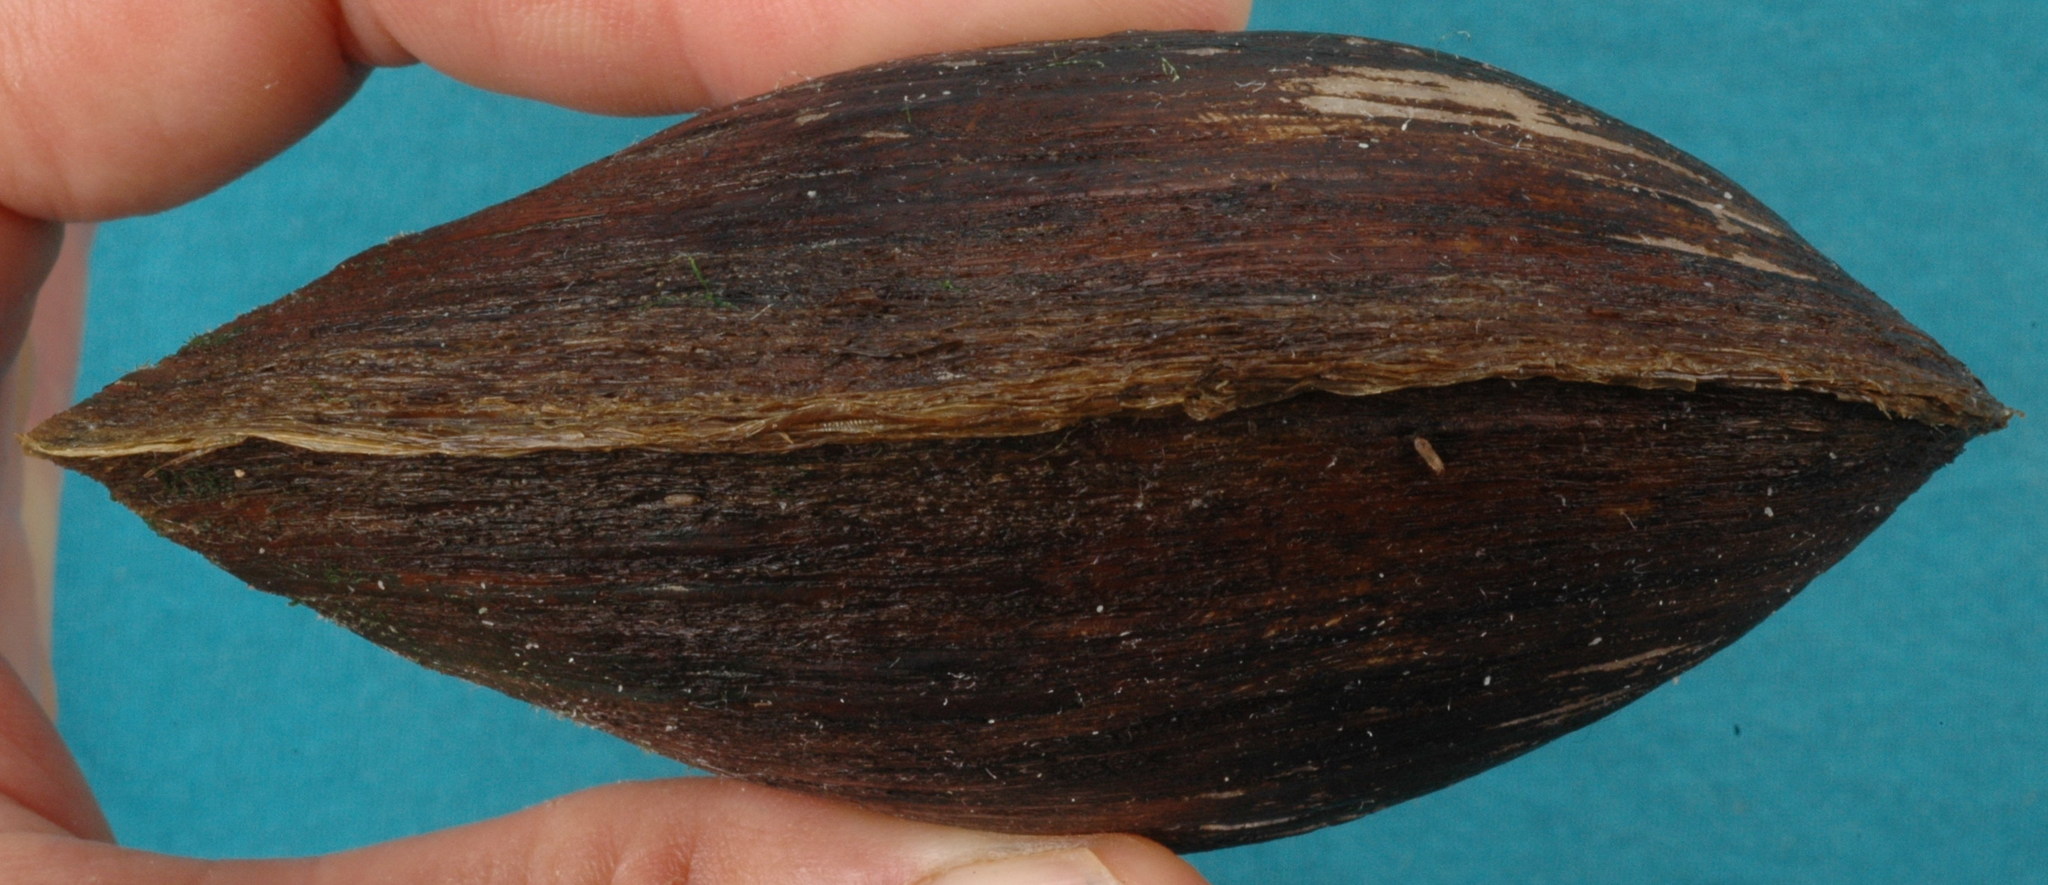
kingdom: Animalia
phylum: Mollusca
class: Bivalvia
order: Unionida
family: Unionidae
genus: Glebula
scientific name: Glebula rotundata
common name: Round pearlshell
